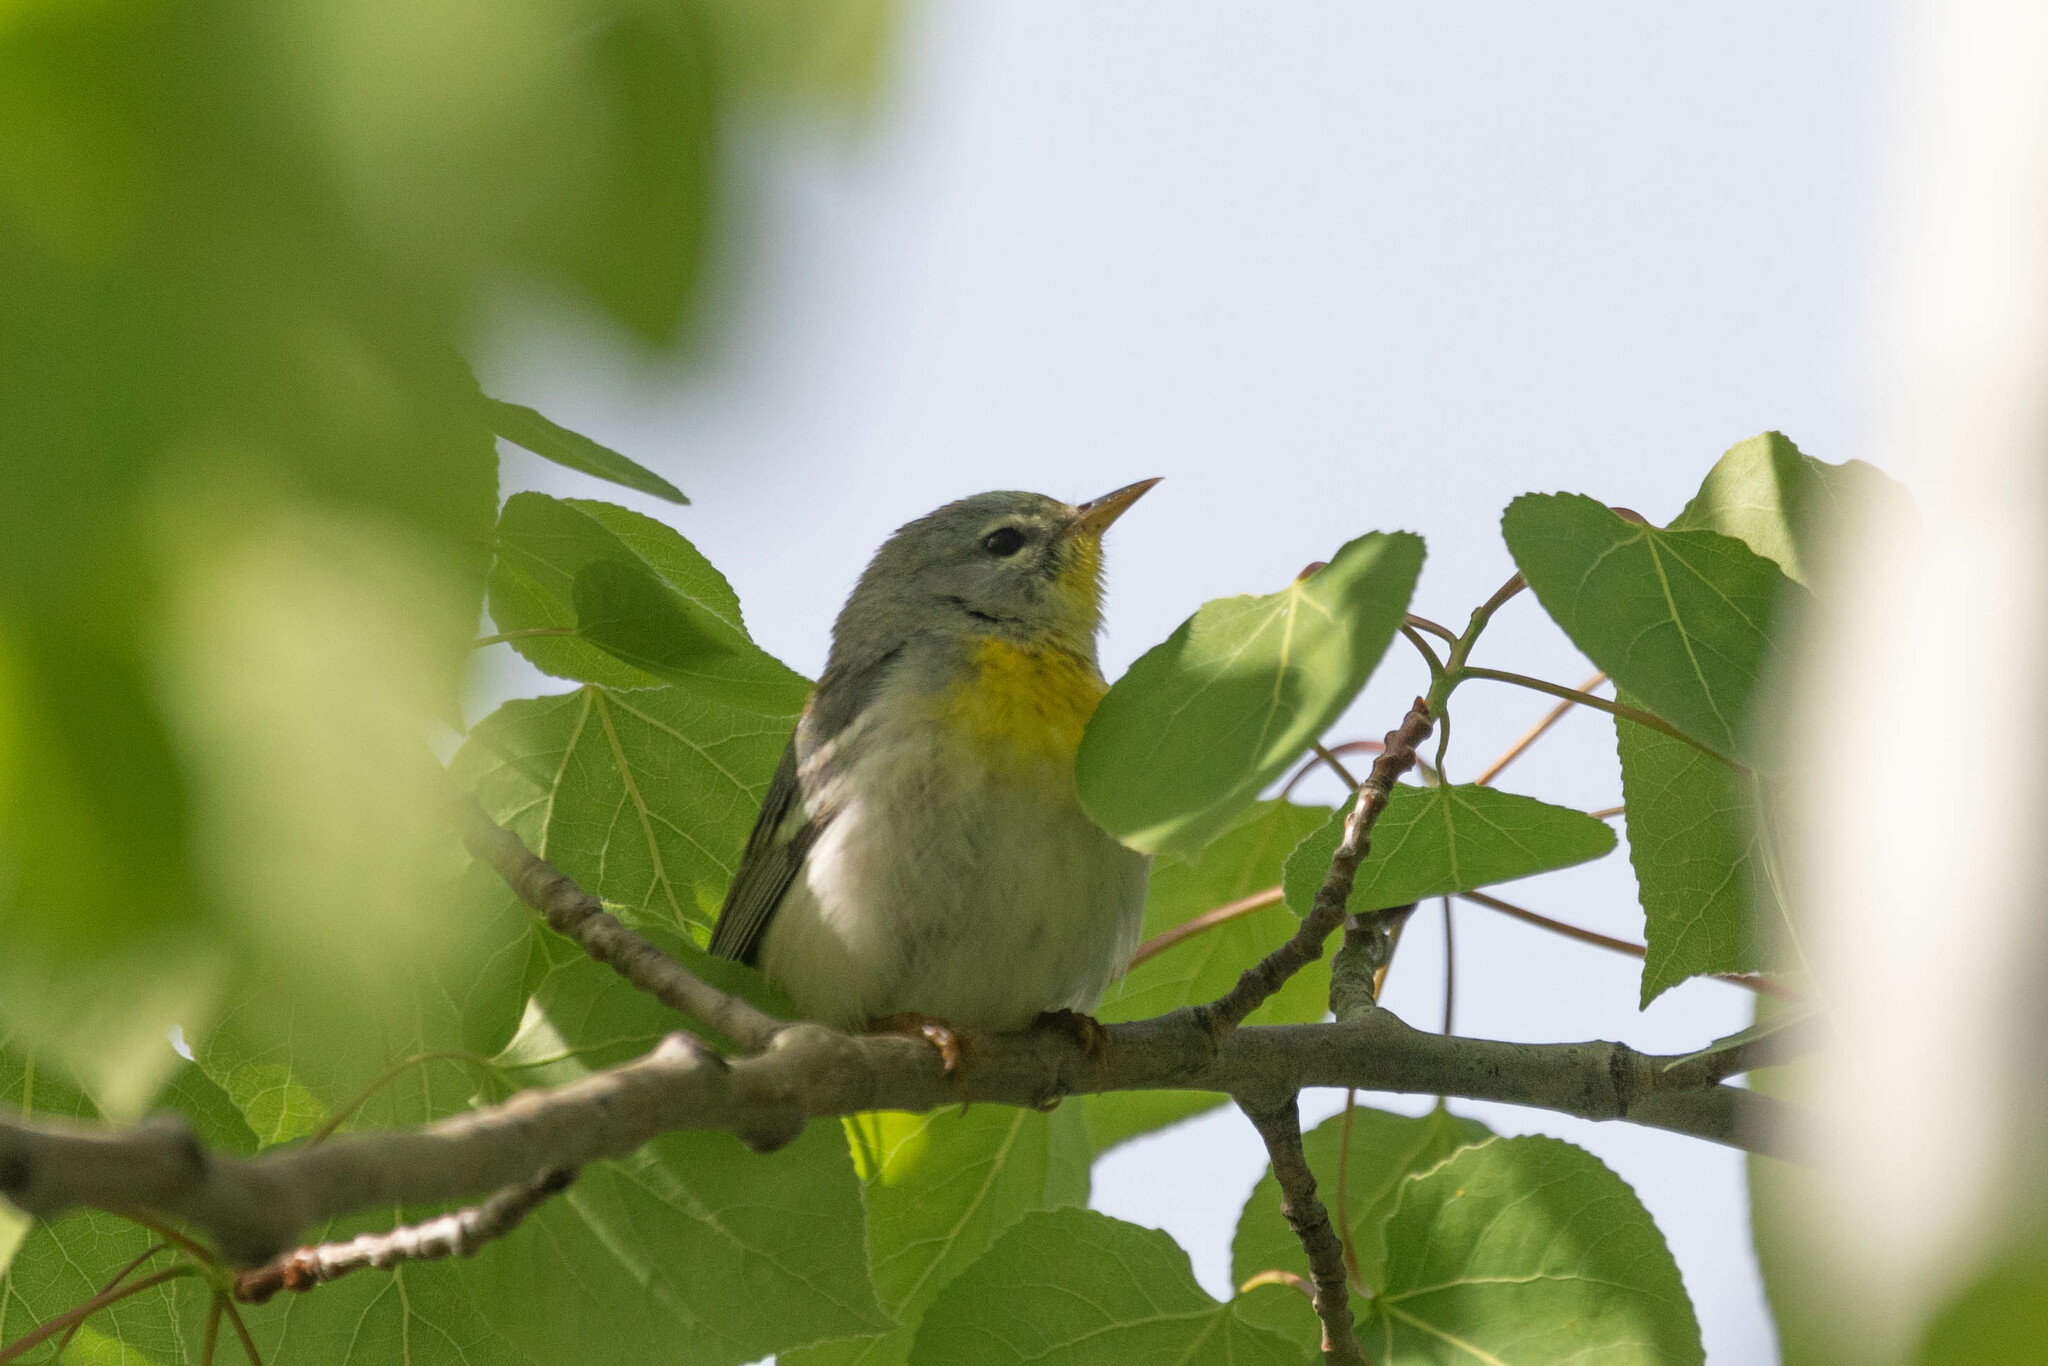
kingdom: Animalia
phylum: Chordata
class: Aves
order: Passeriformes
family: Parulidae
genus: Setophaga
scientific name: Setophaga americana
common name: Northern parula
